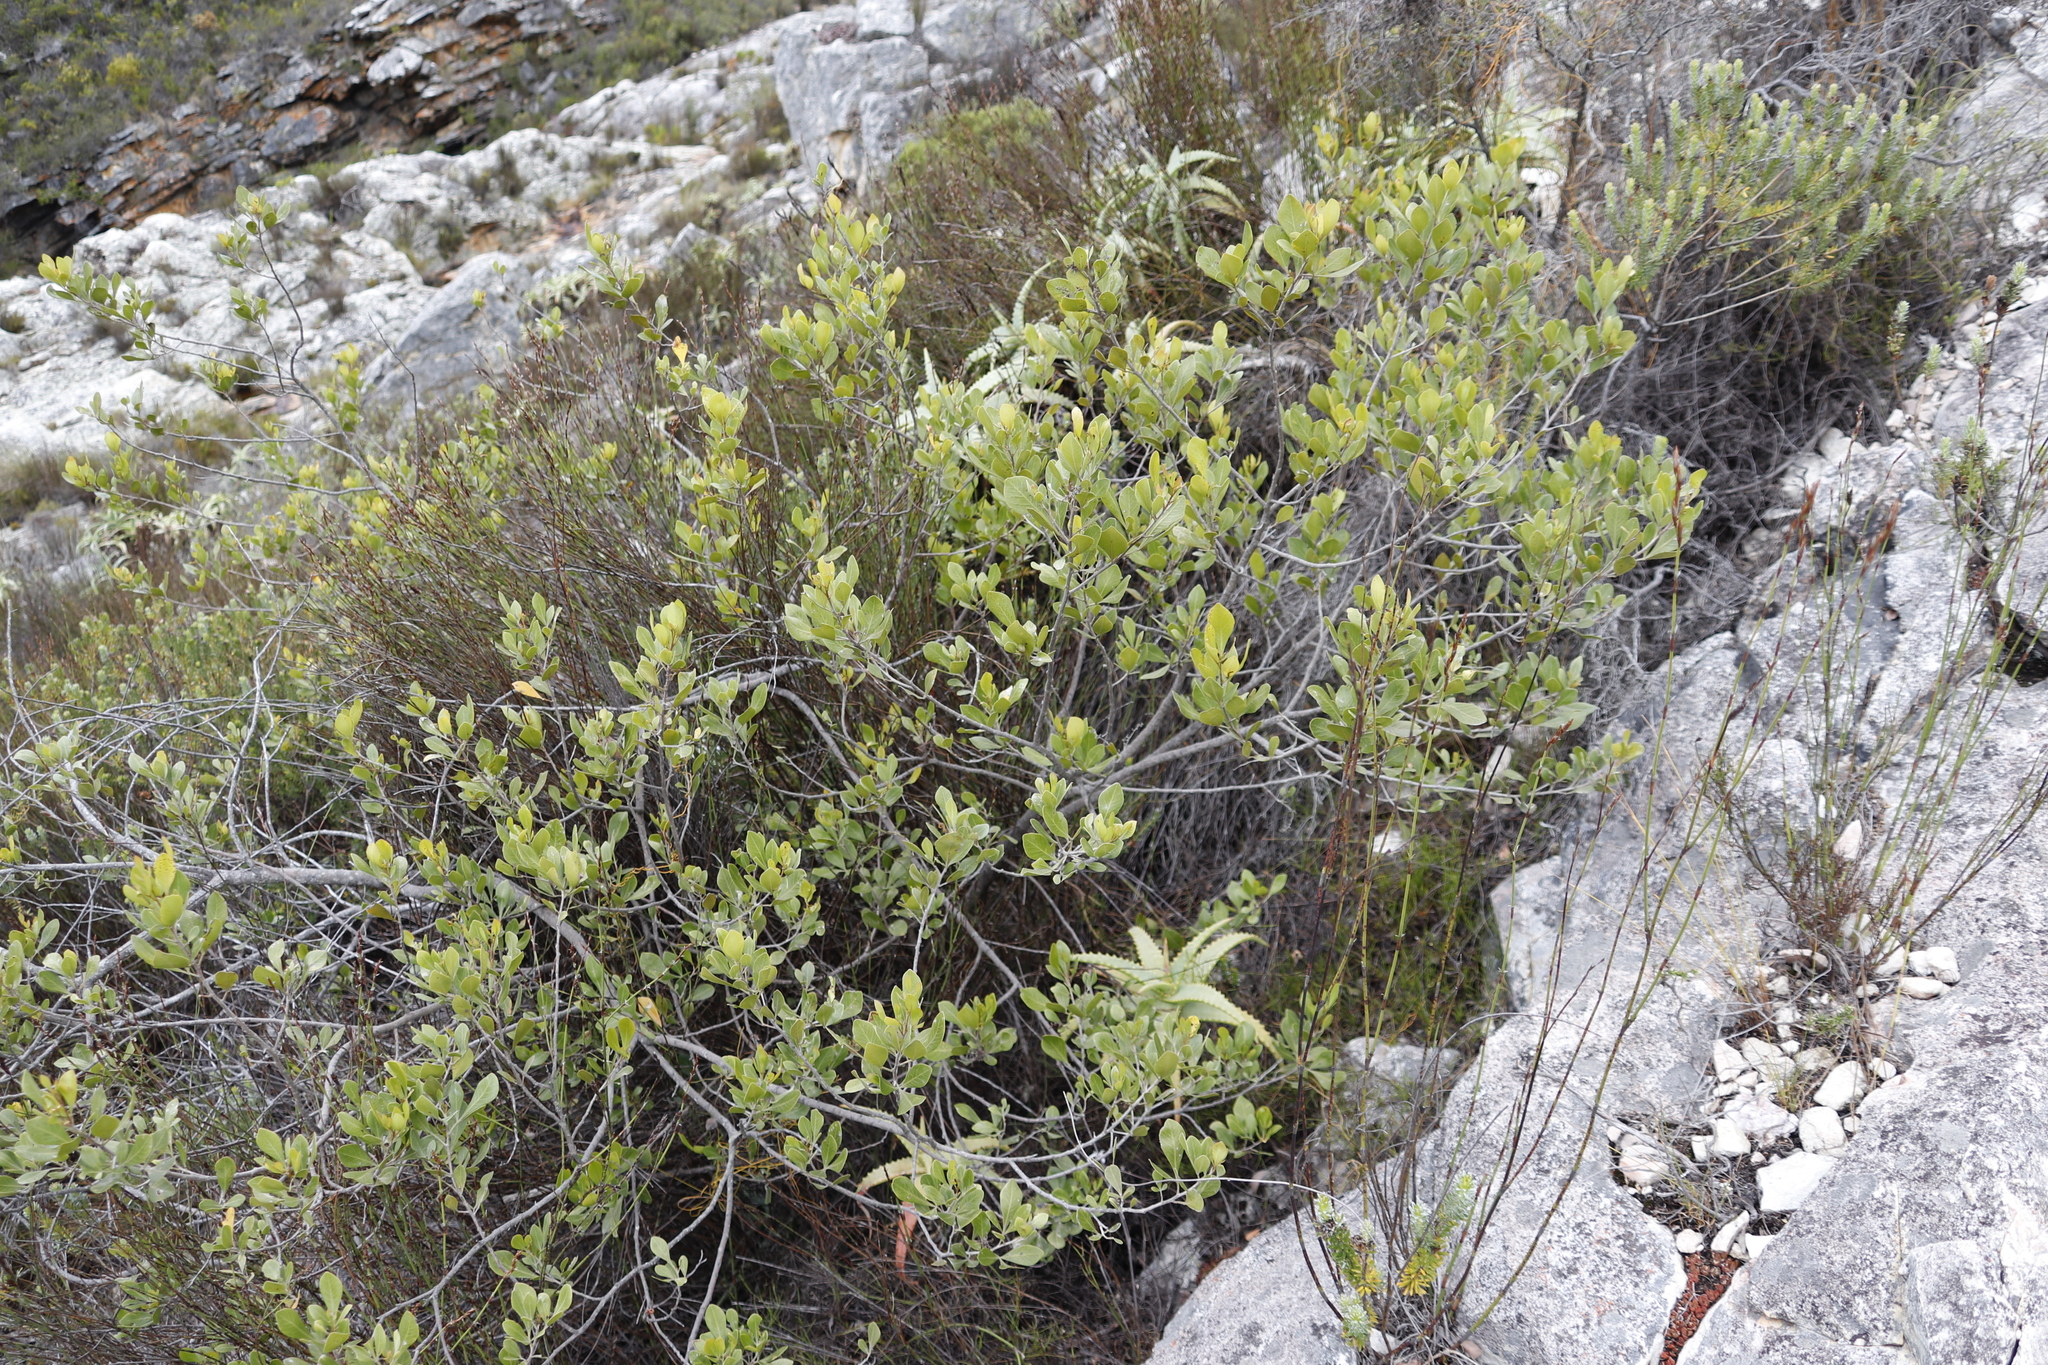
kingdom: Plantae
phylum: Tracheophyta
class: Magnoliopsida
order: Sapindales
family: Anacardiaceae
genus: Searsia
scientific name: Searsia lucida
